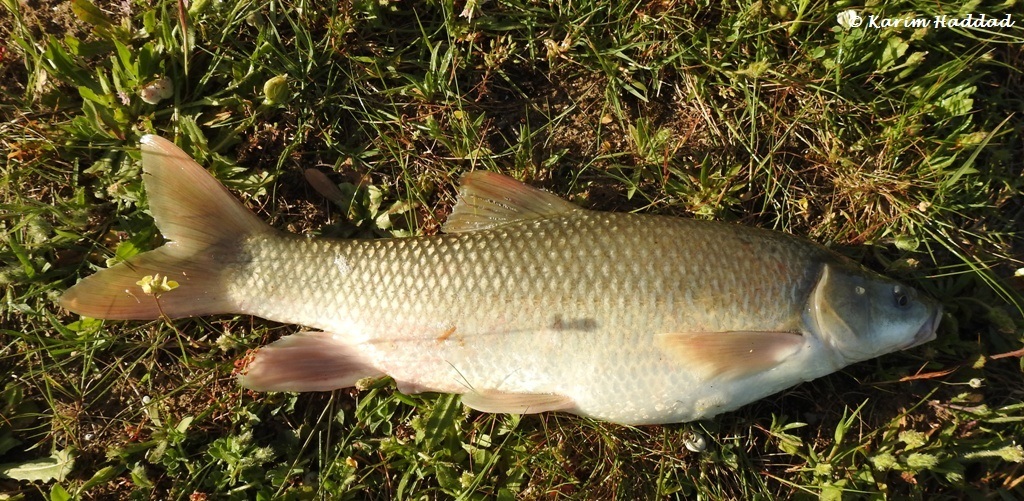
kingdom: Animalia
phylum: Chordata
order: Cypriniformes
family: Cyprinidae
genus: Luciobarbus
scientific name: Luciobarbus numidiensis
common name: Numidian barbel
